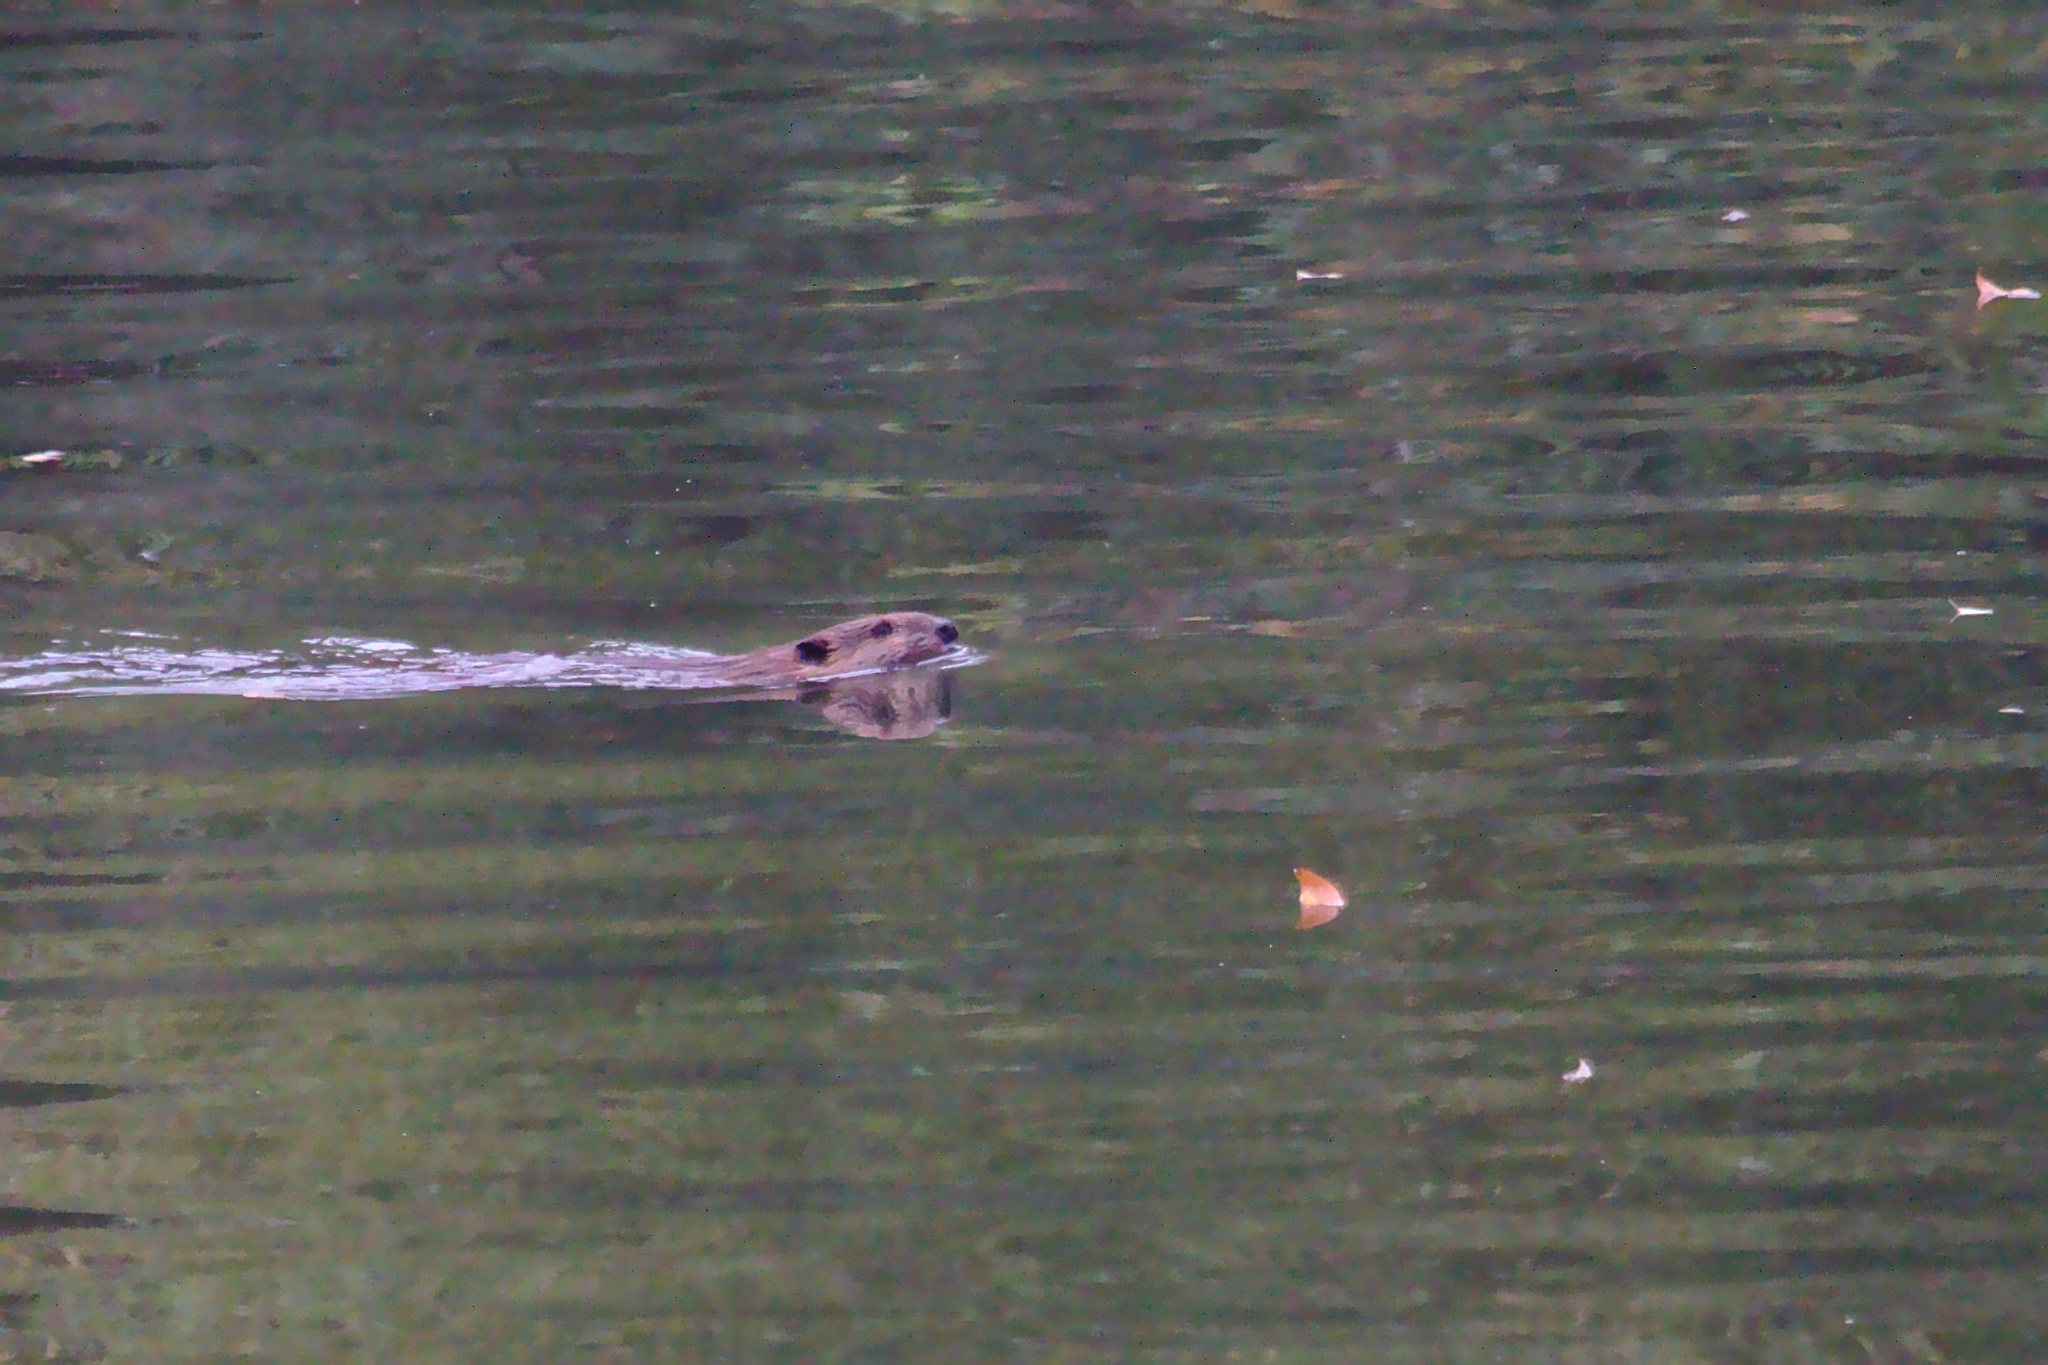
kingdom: Animalia
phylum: Chordata
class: Mammalia
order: Rodentia
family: Castoridae
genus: Castor
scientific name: Castor canadensis
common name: American beaver
